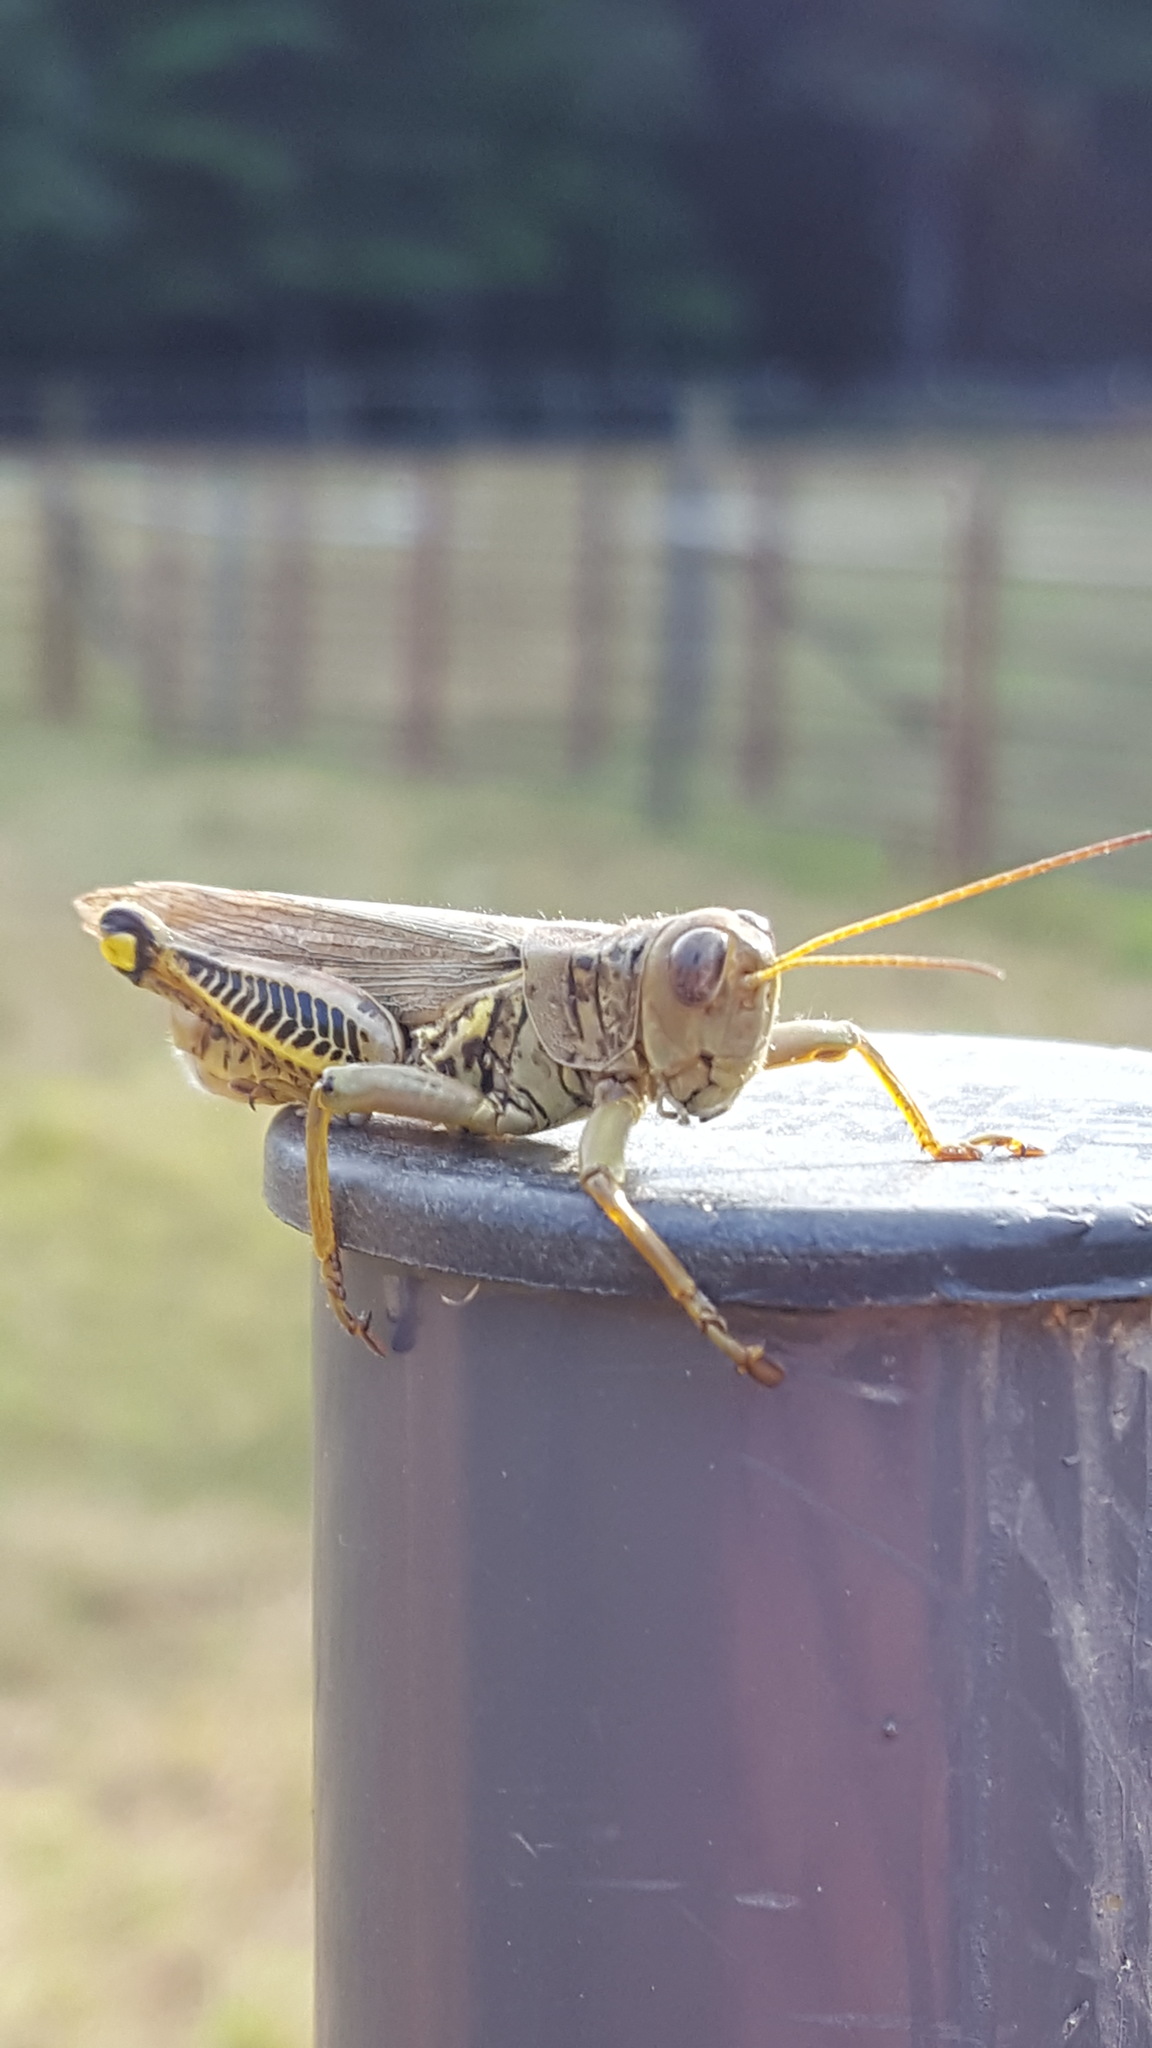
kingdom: Animalia
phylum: Arthropoda
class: Insecta
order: Orthoptera
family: Acrididae
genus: Melanoplus
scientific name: Melanoplus differentialis
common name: Differential grasshopper
